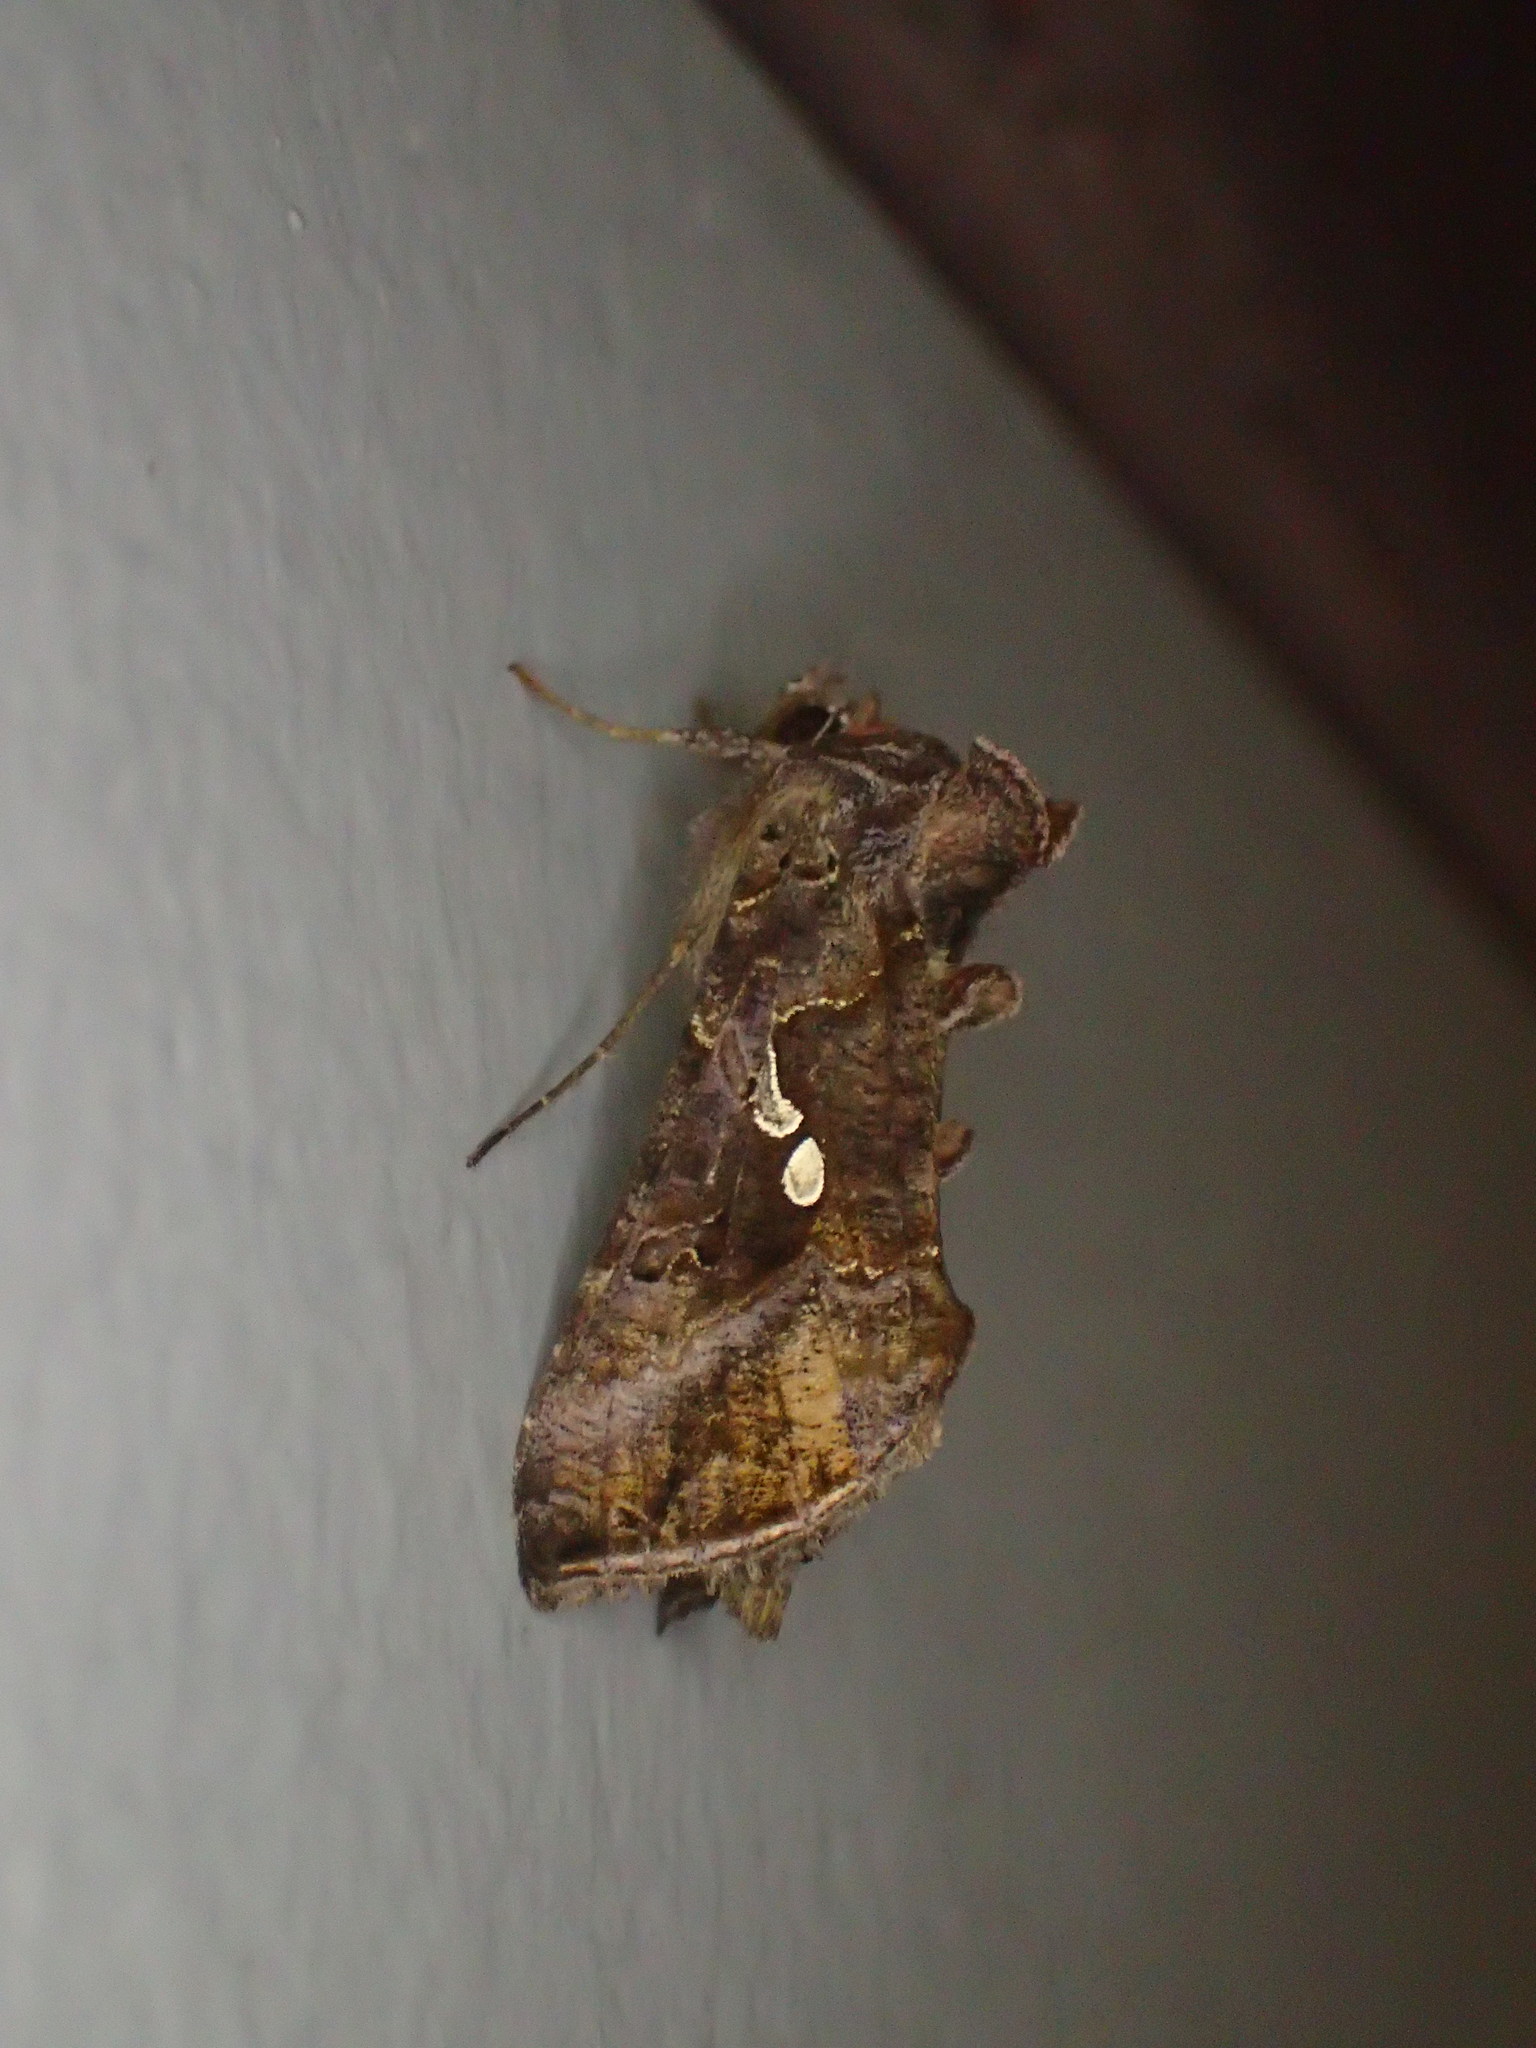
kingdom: Animalia
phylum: Arthropoda
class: Insecta
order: Lepidoptera
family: Noctuidae
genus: Autographa
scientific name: Autographa precationis
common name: Common looper moth
